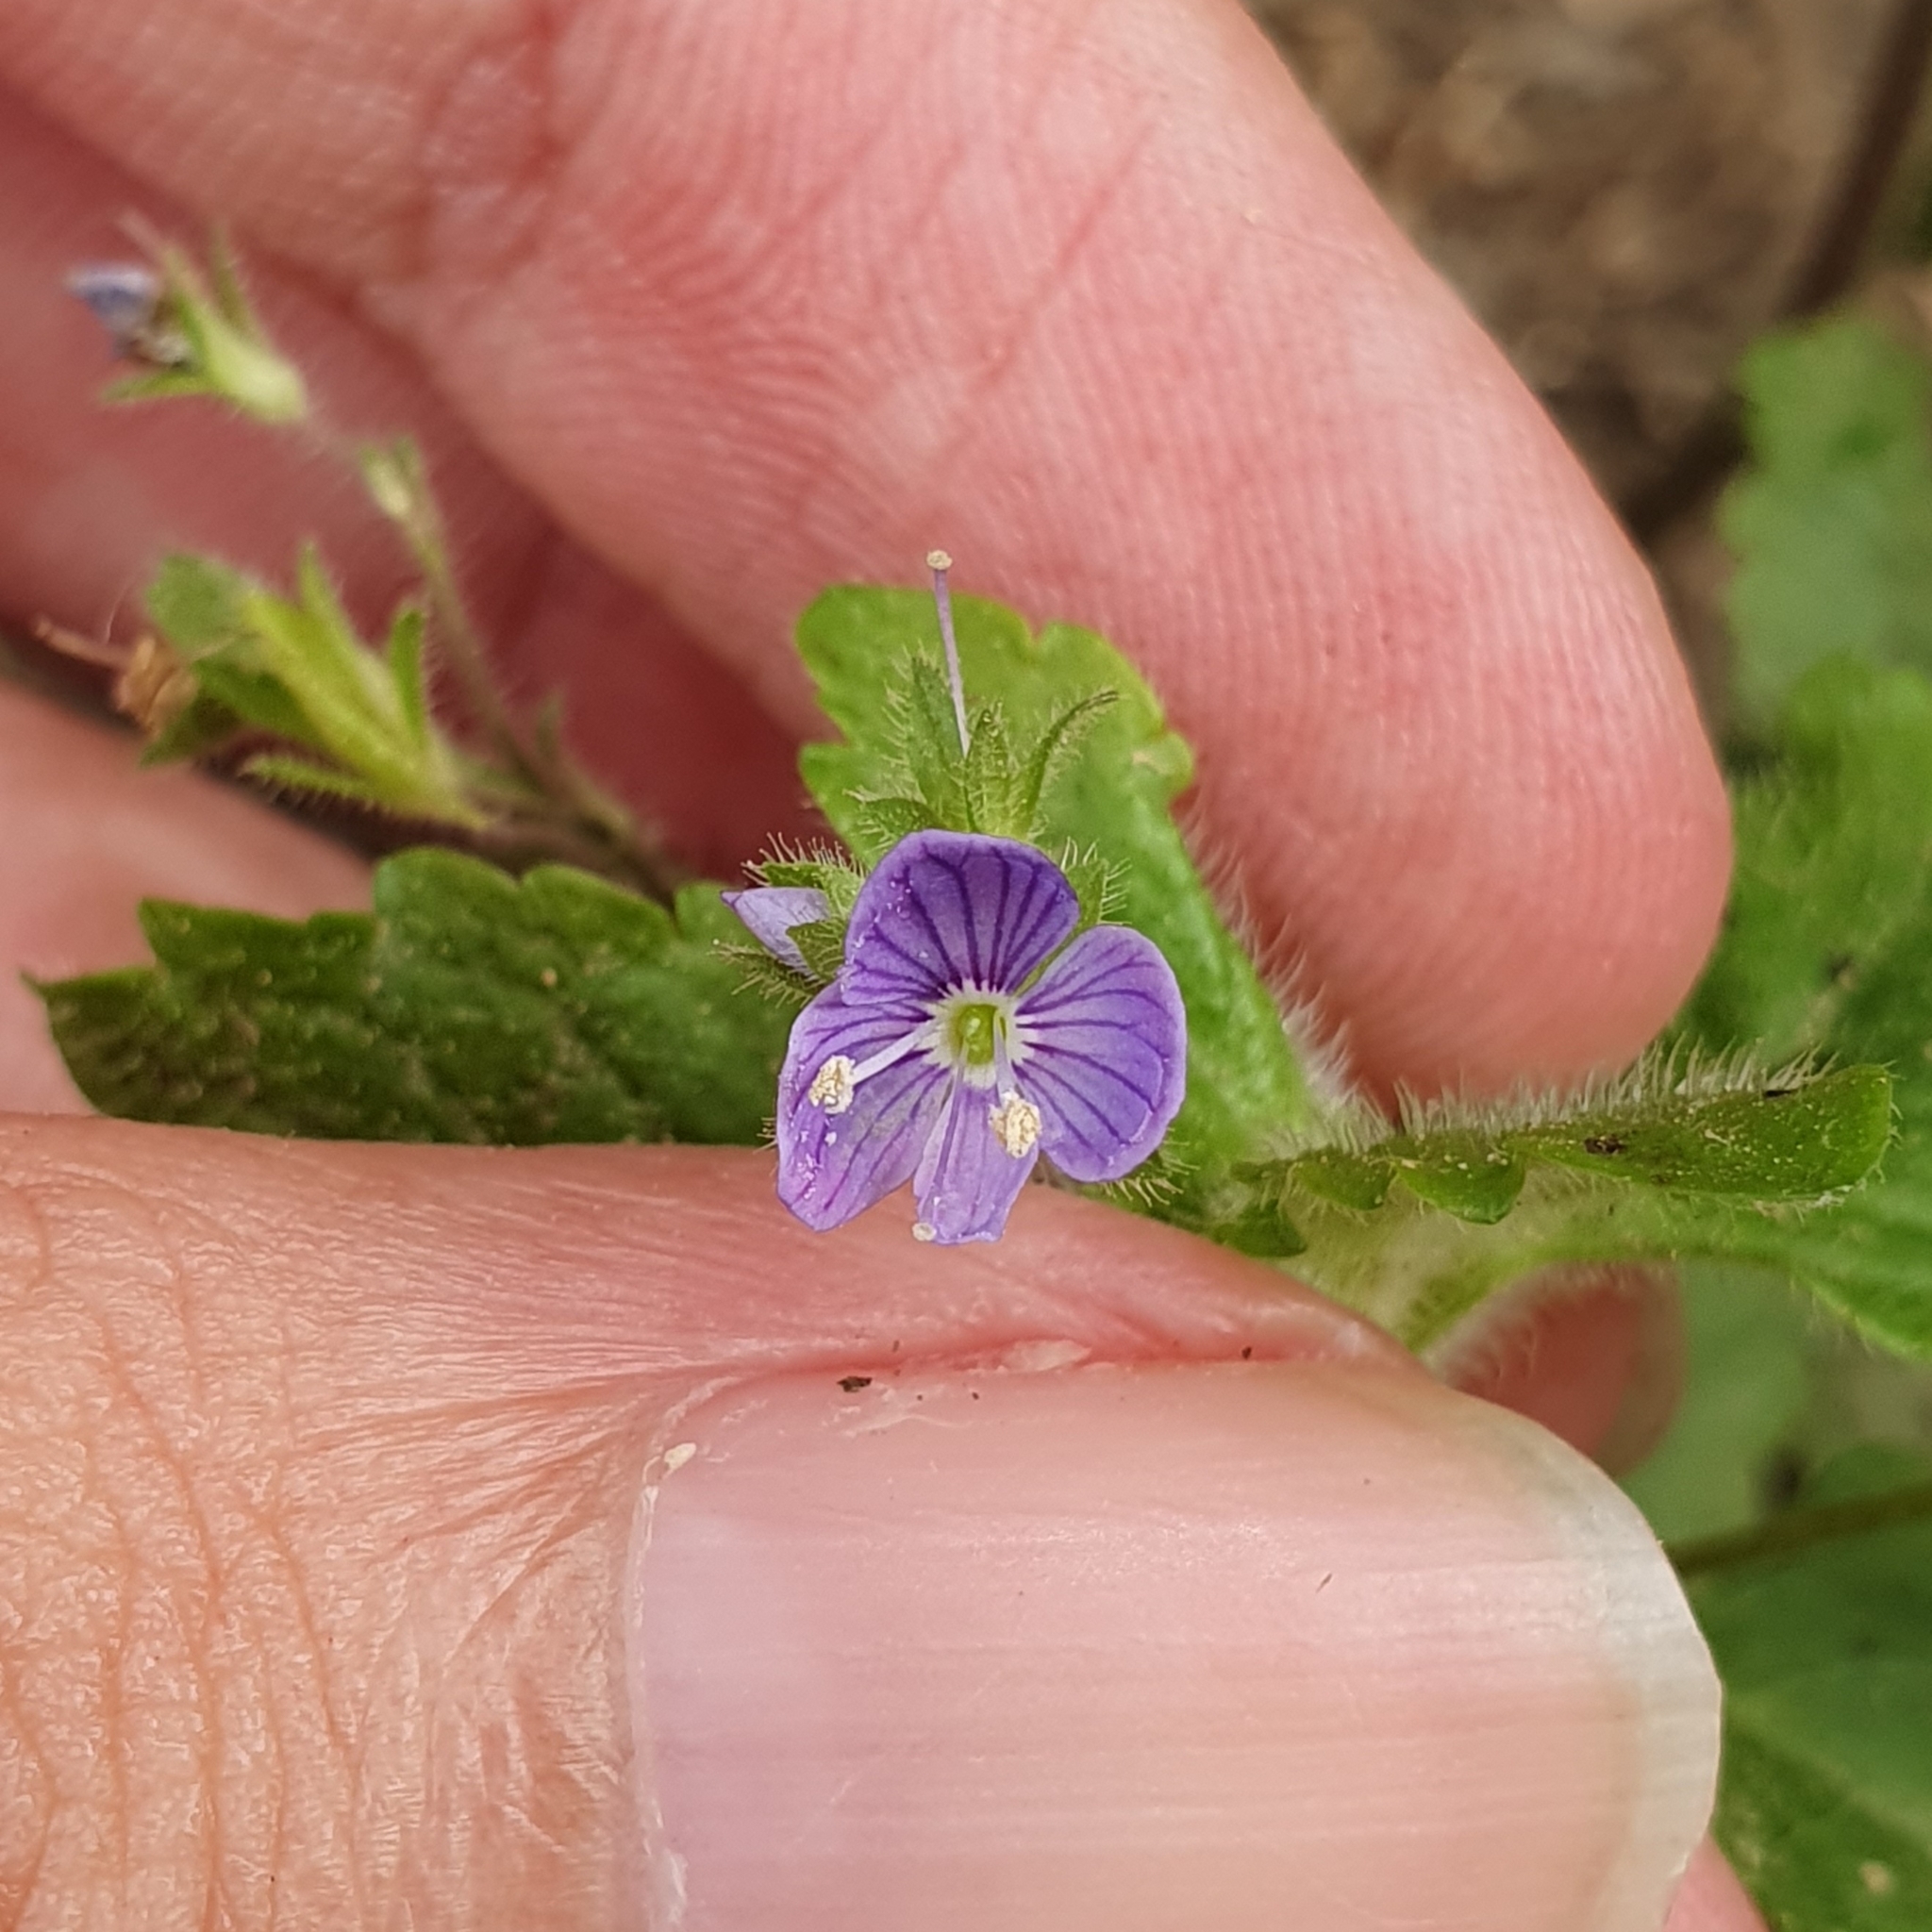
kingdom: Plantae
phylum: Tracheophyta
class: Magnoliopsida
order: Lamiales
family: Plantaginaceae
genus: Veronica
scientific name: Veronica montana
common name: Wood speedwell
